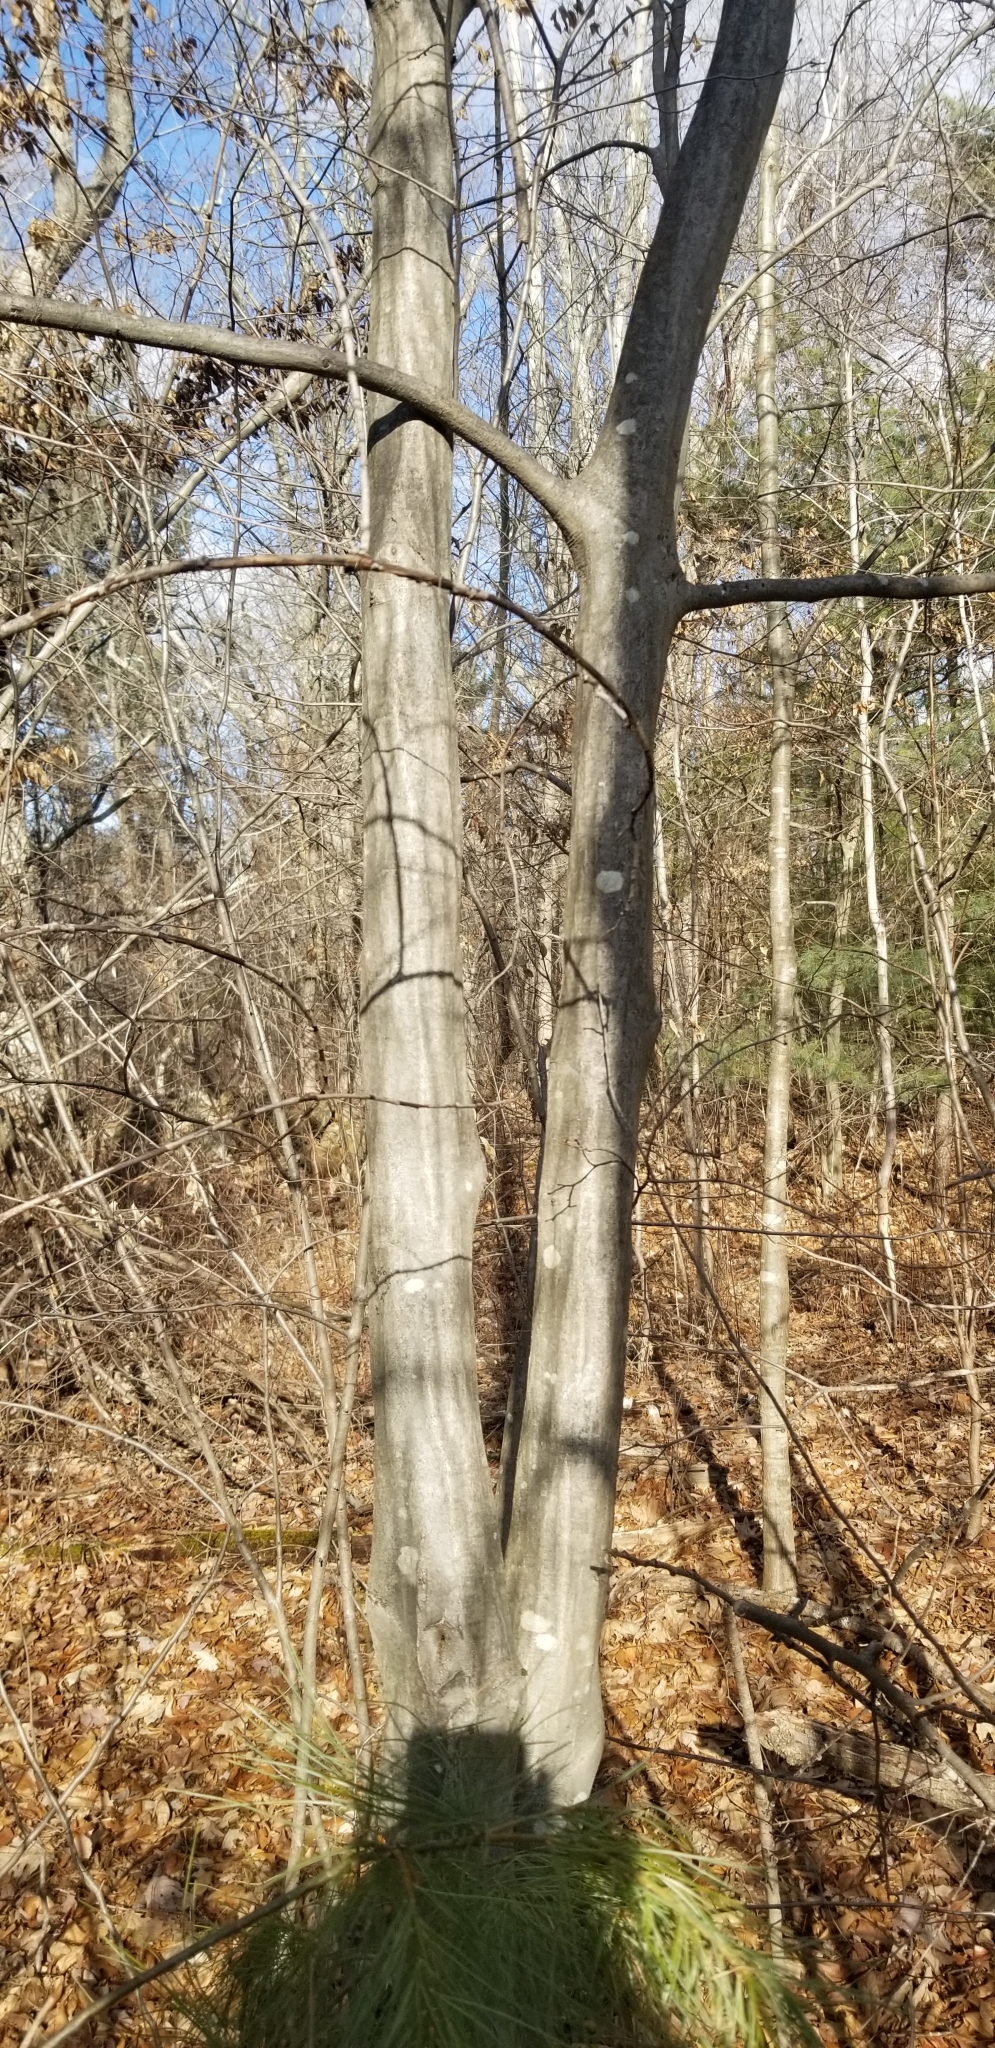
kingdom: Plantae
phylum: Tracheophyta
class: Magnoliopsida
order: Fagales
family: Betulaceae
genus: Carpinus
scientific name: Carpinus caroliniana
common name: American hornbeam
